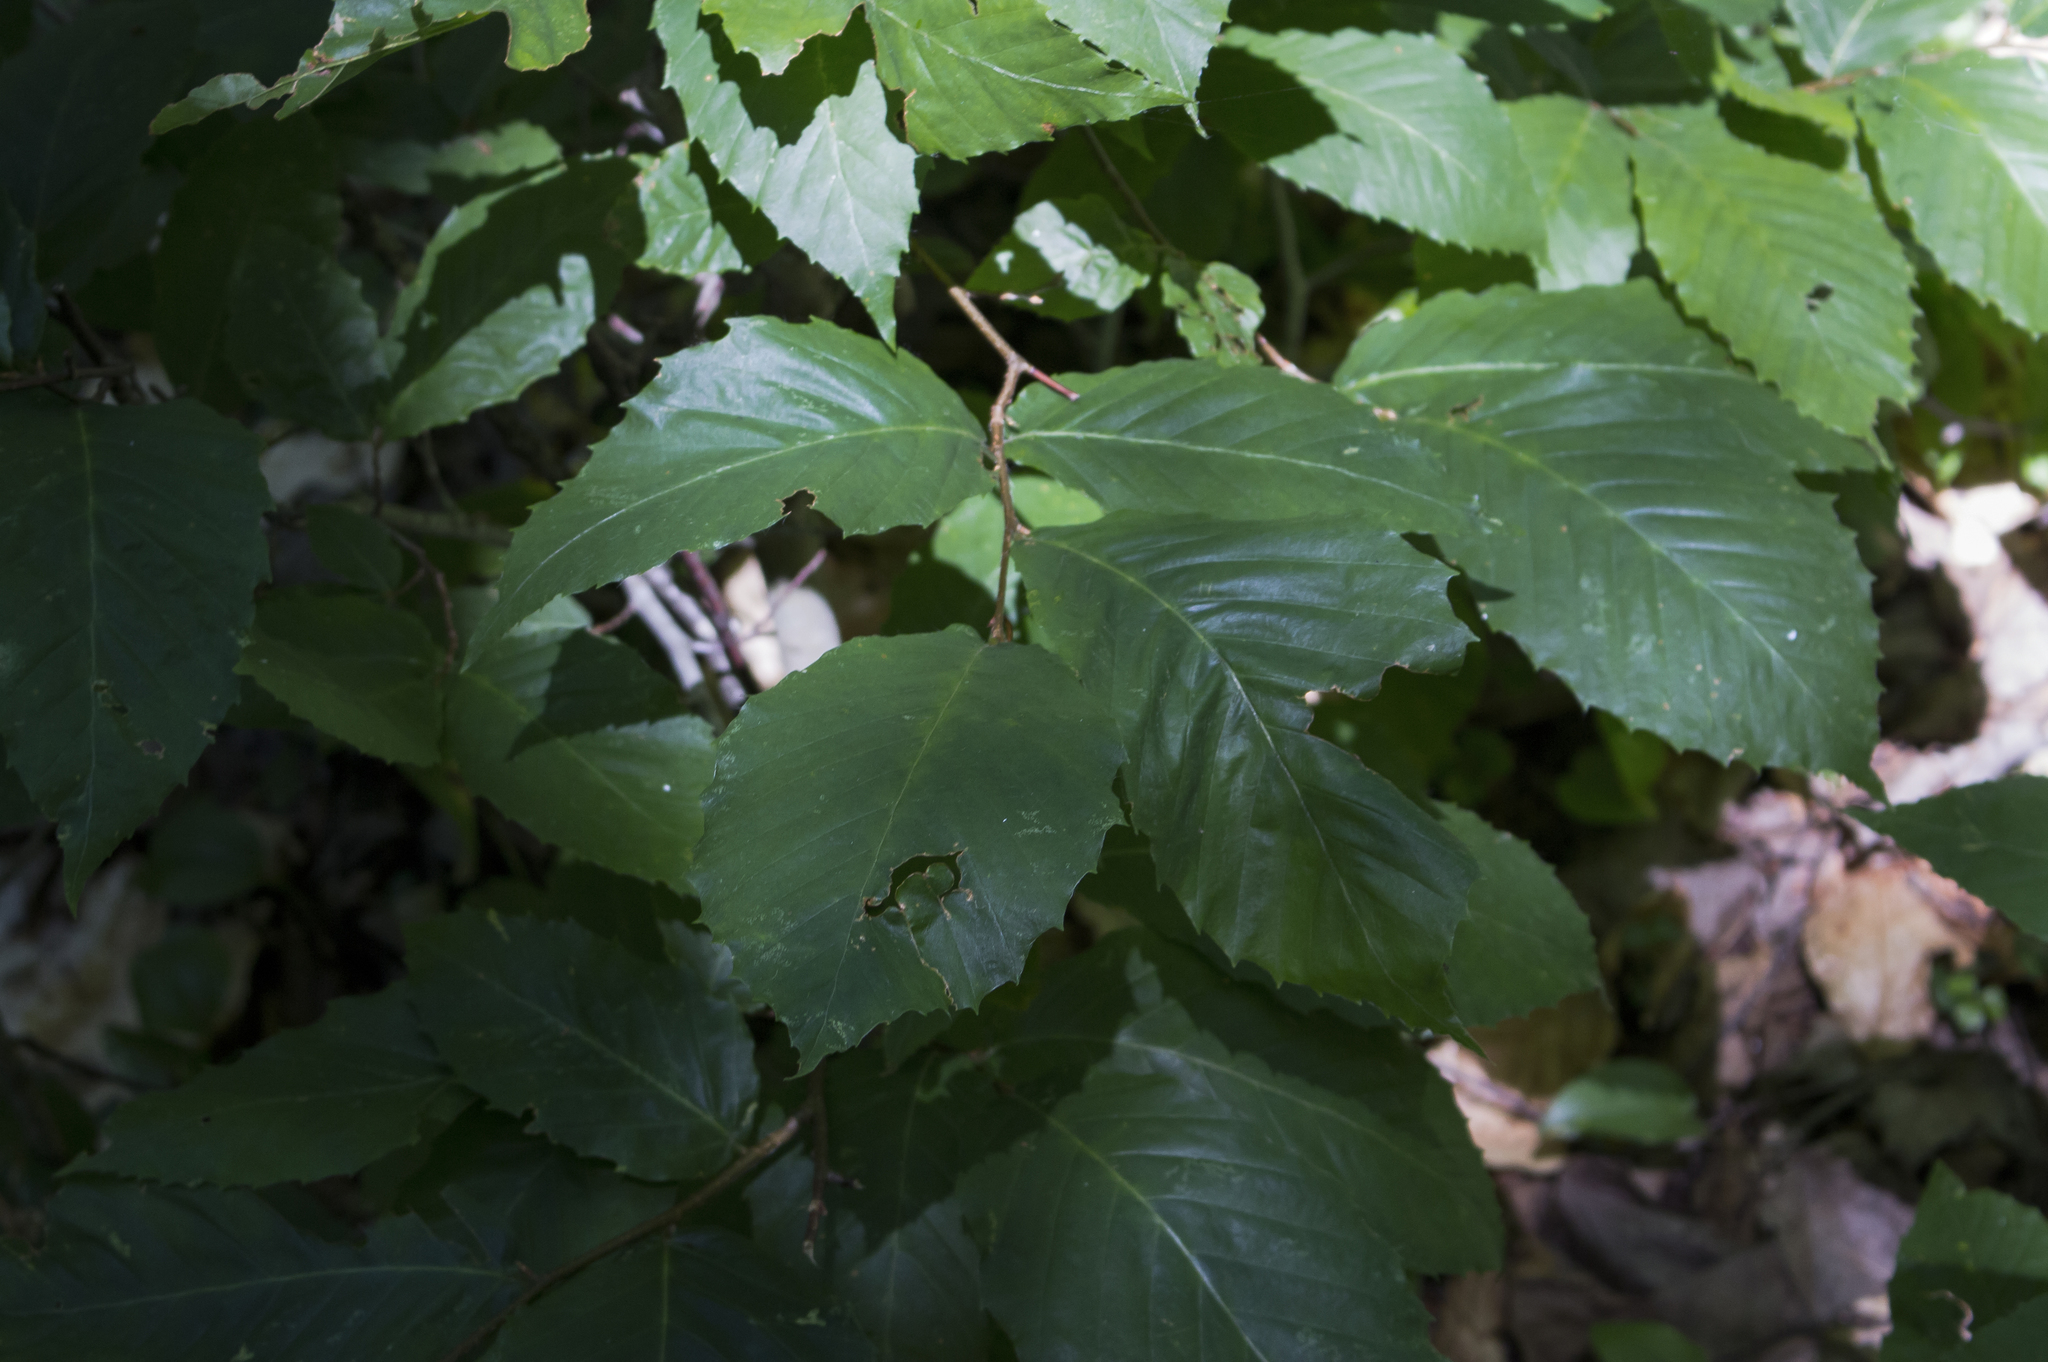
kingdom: Plantae
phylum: Tracheophyta
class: Magnoliopsida
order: Fagales
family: Fagaceae
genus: Fagus
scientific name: Fagus grandifolia
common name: American beech
